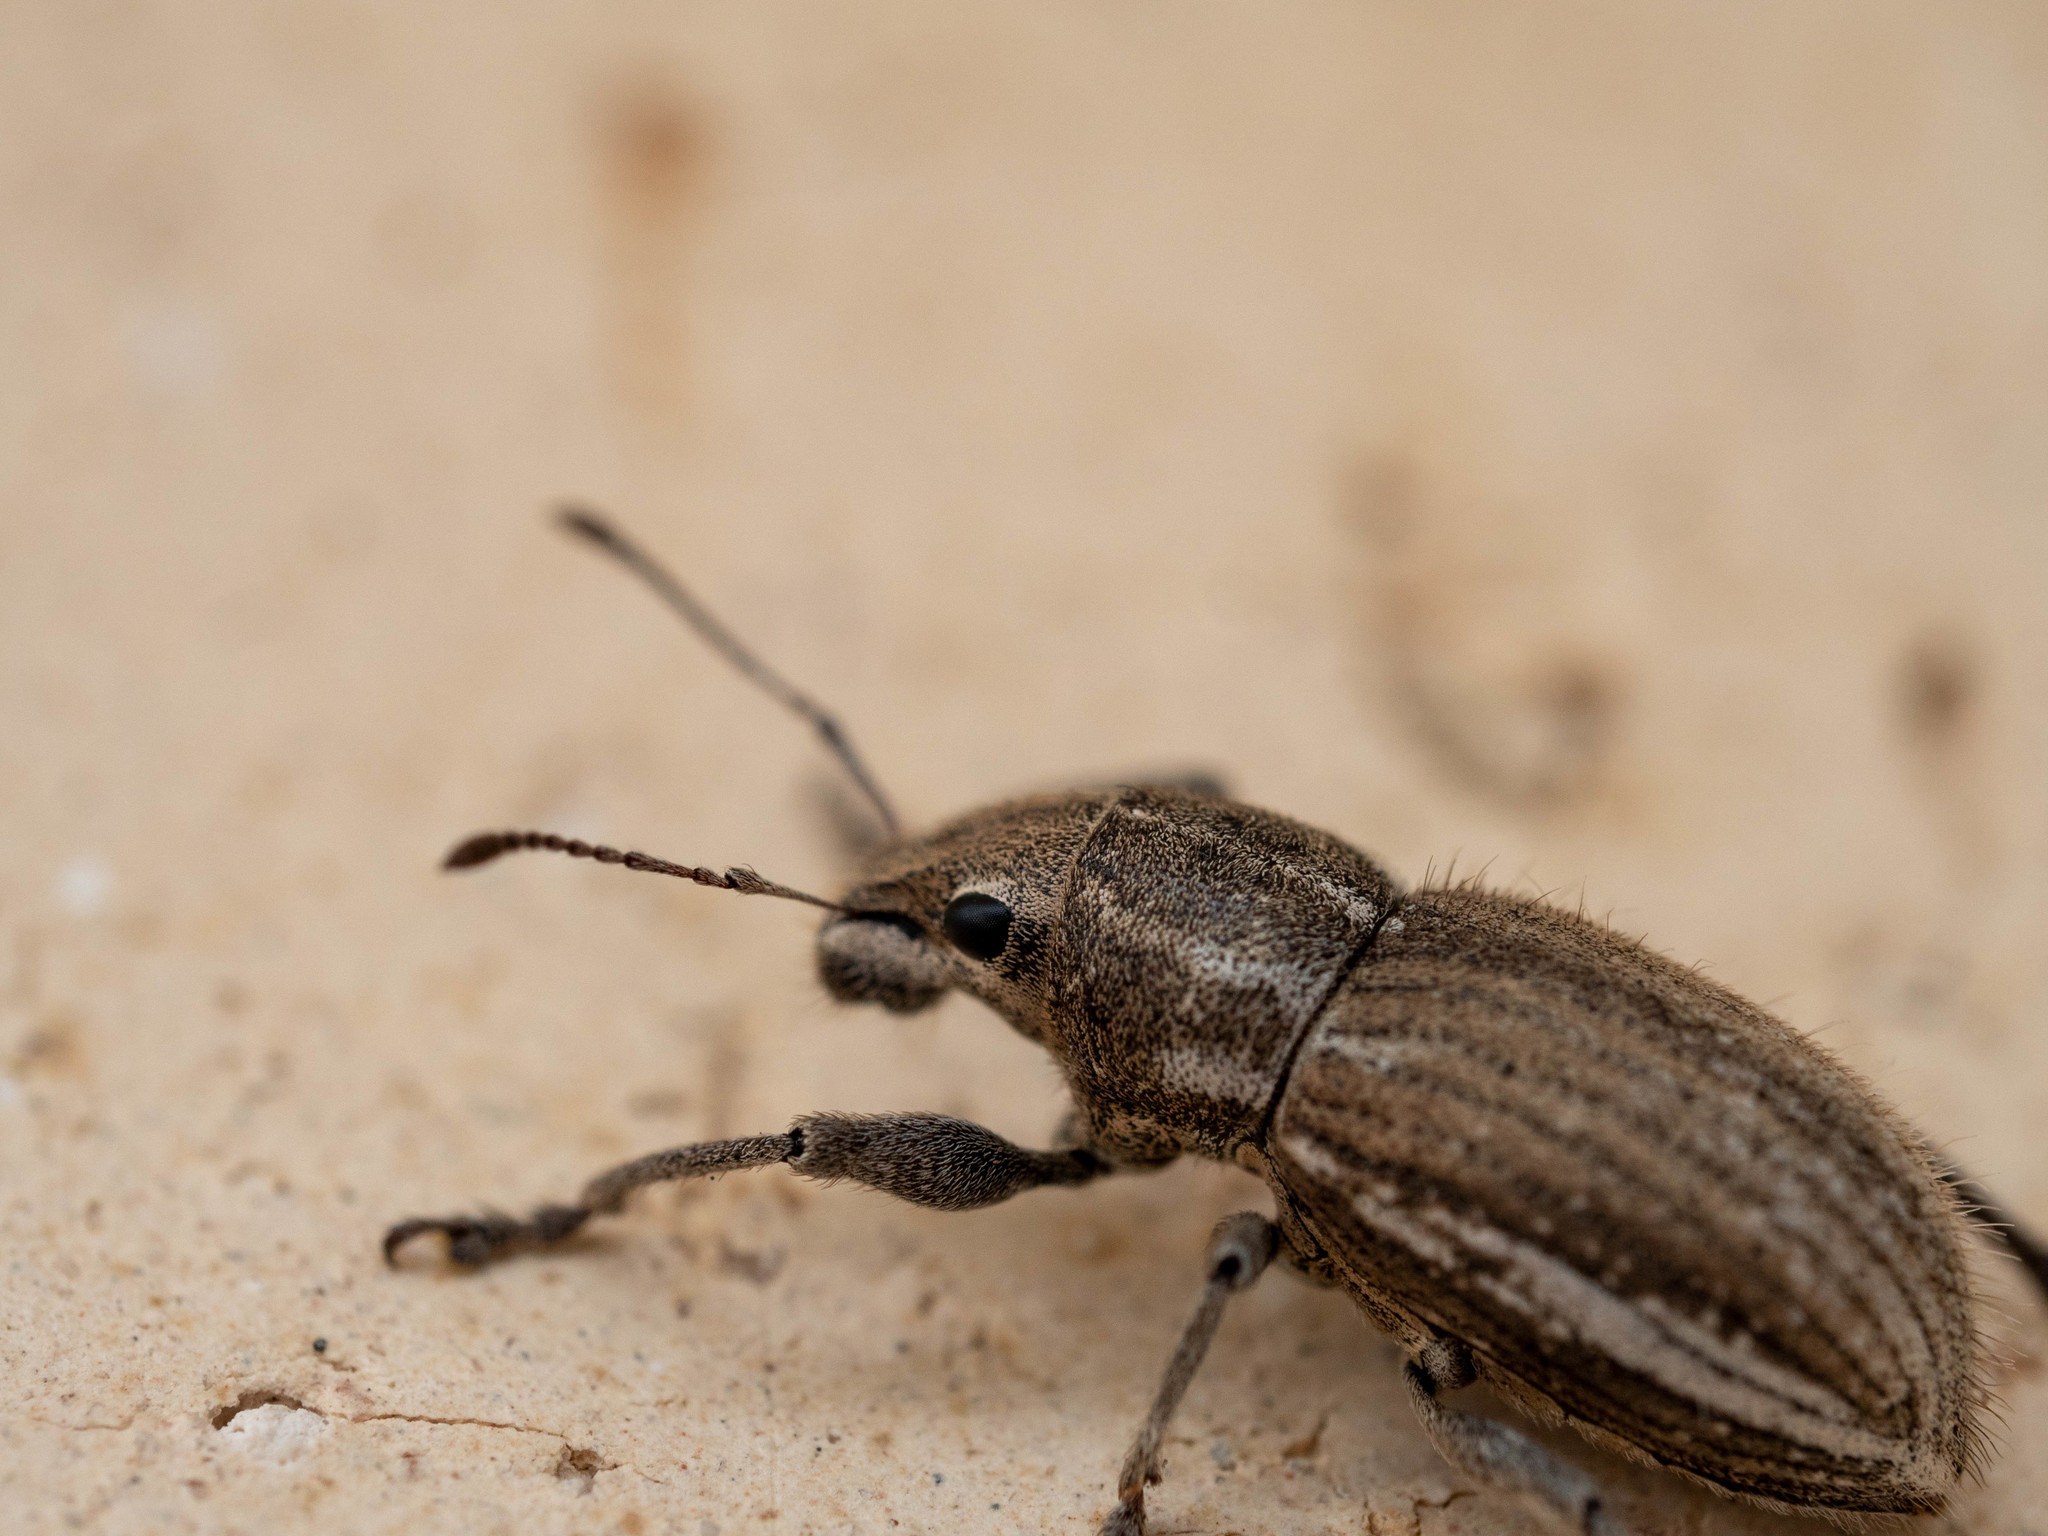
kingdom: Animalia
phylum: Arthropoda
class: Insecta
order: Coleoptera
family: Curculionidae
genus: Naupactus
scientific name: Naupactus leucoloma
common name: Whitefringed beetle
